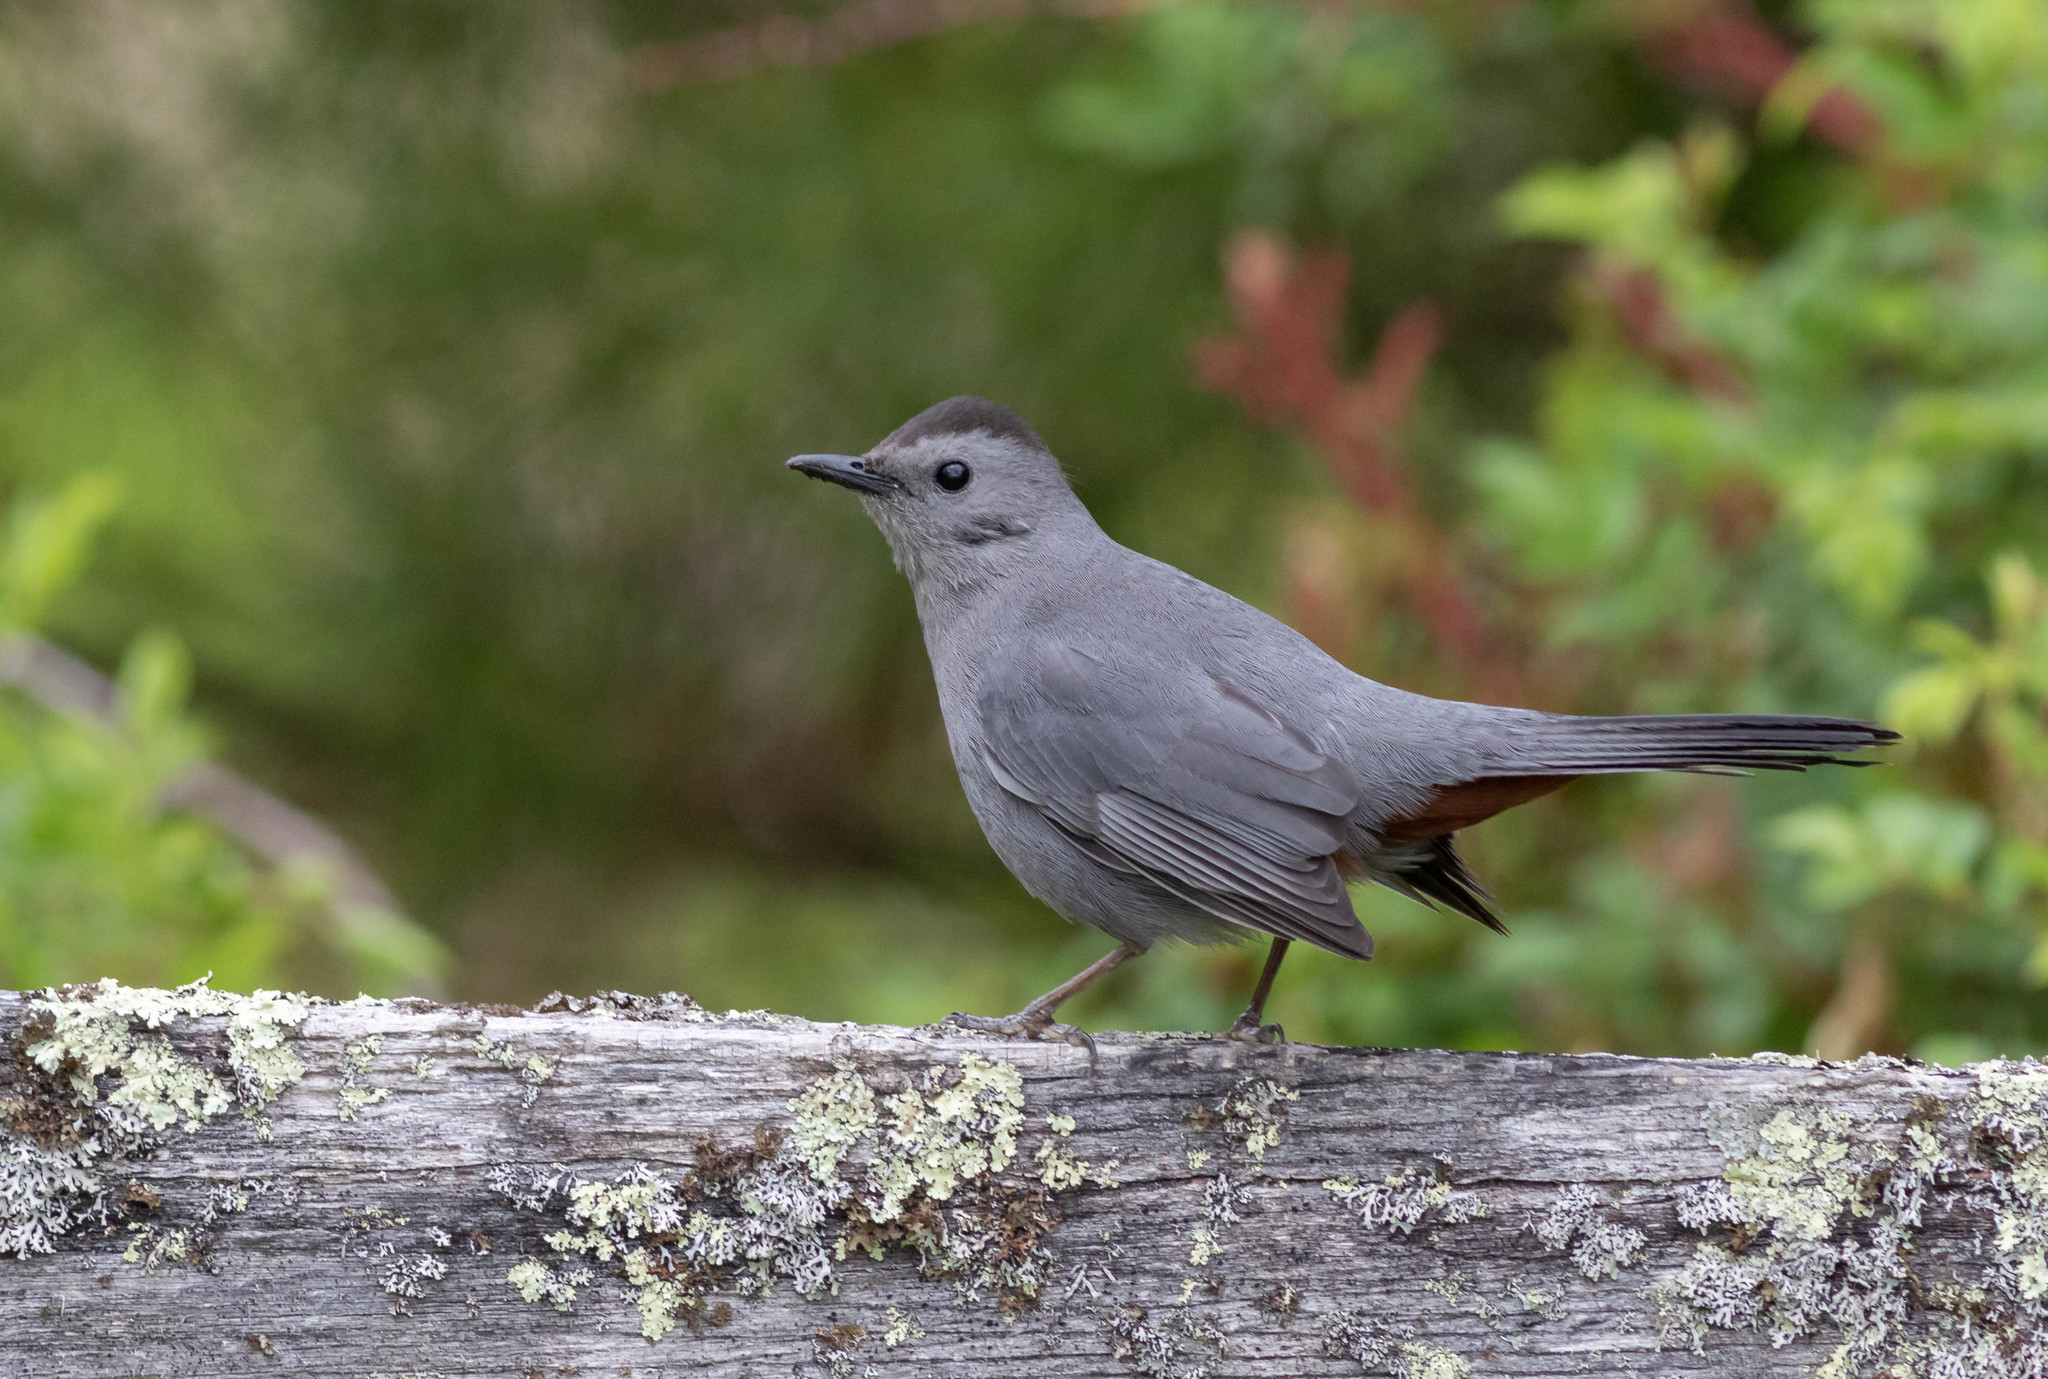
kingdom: Animalia
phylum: Chordata
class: Aves
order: Passeriformes
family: Mimidae
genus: Dumetella
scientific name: Dumetella carolinensis
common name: Gray catbird
